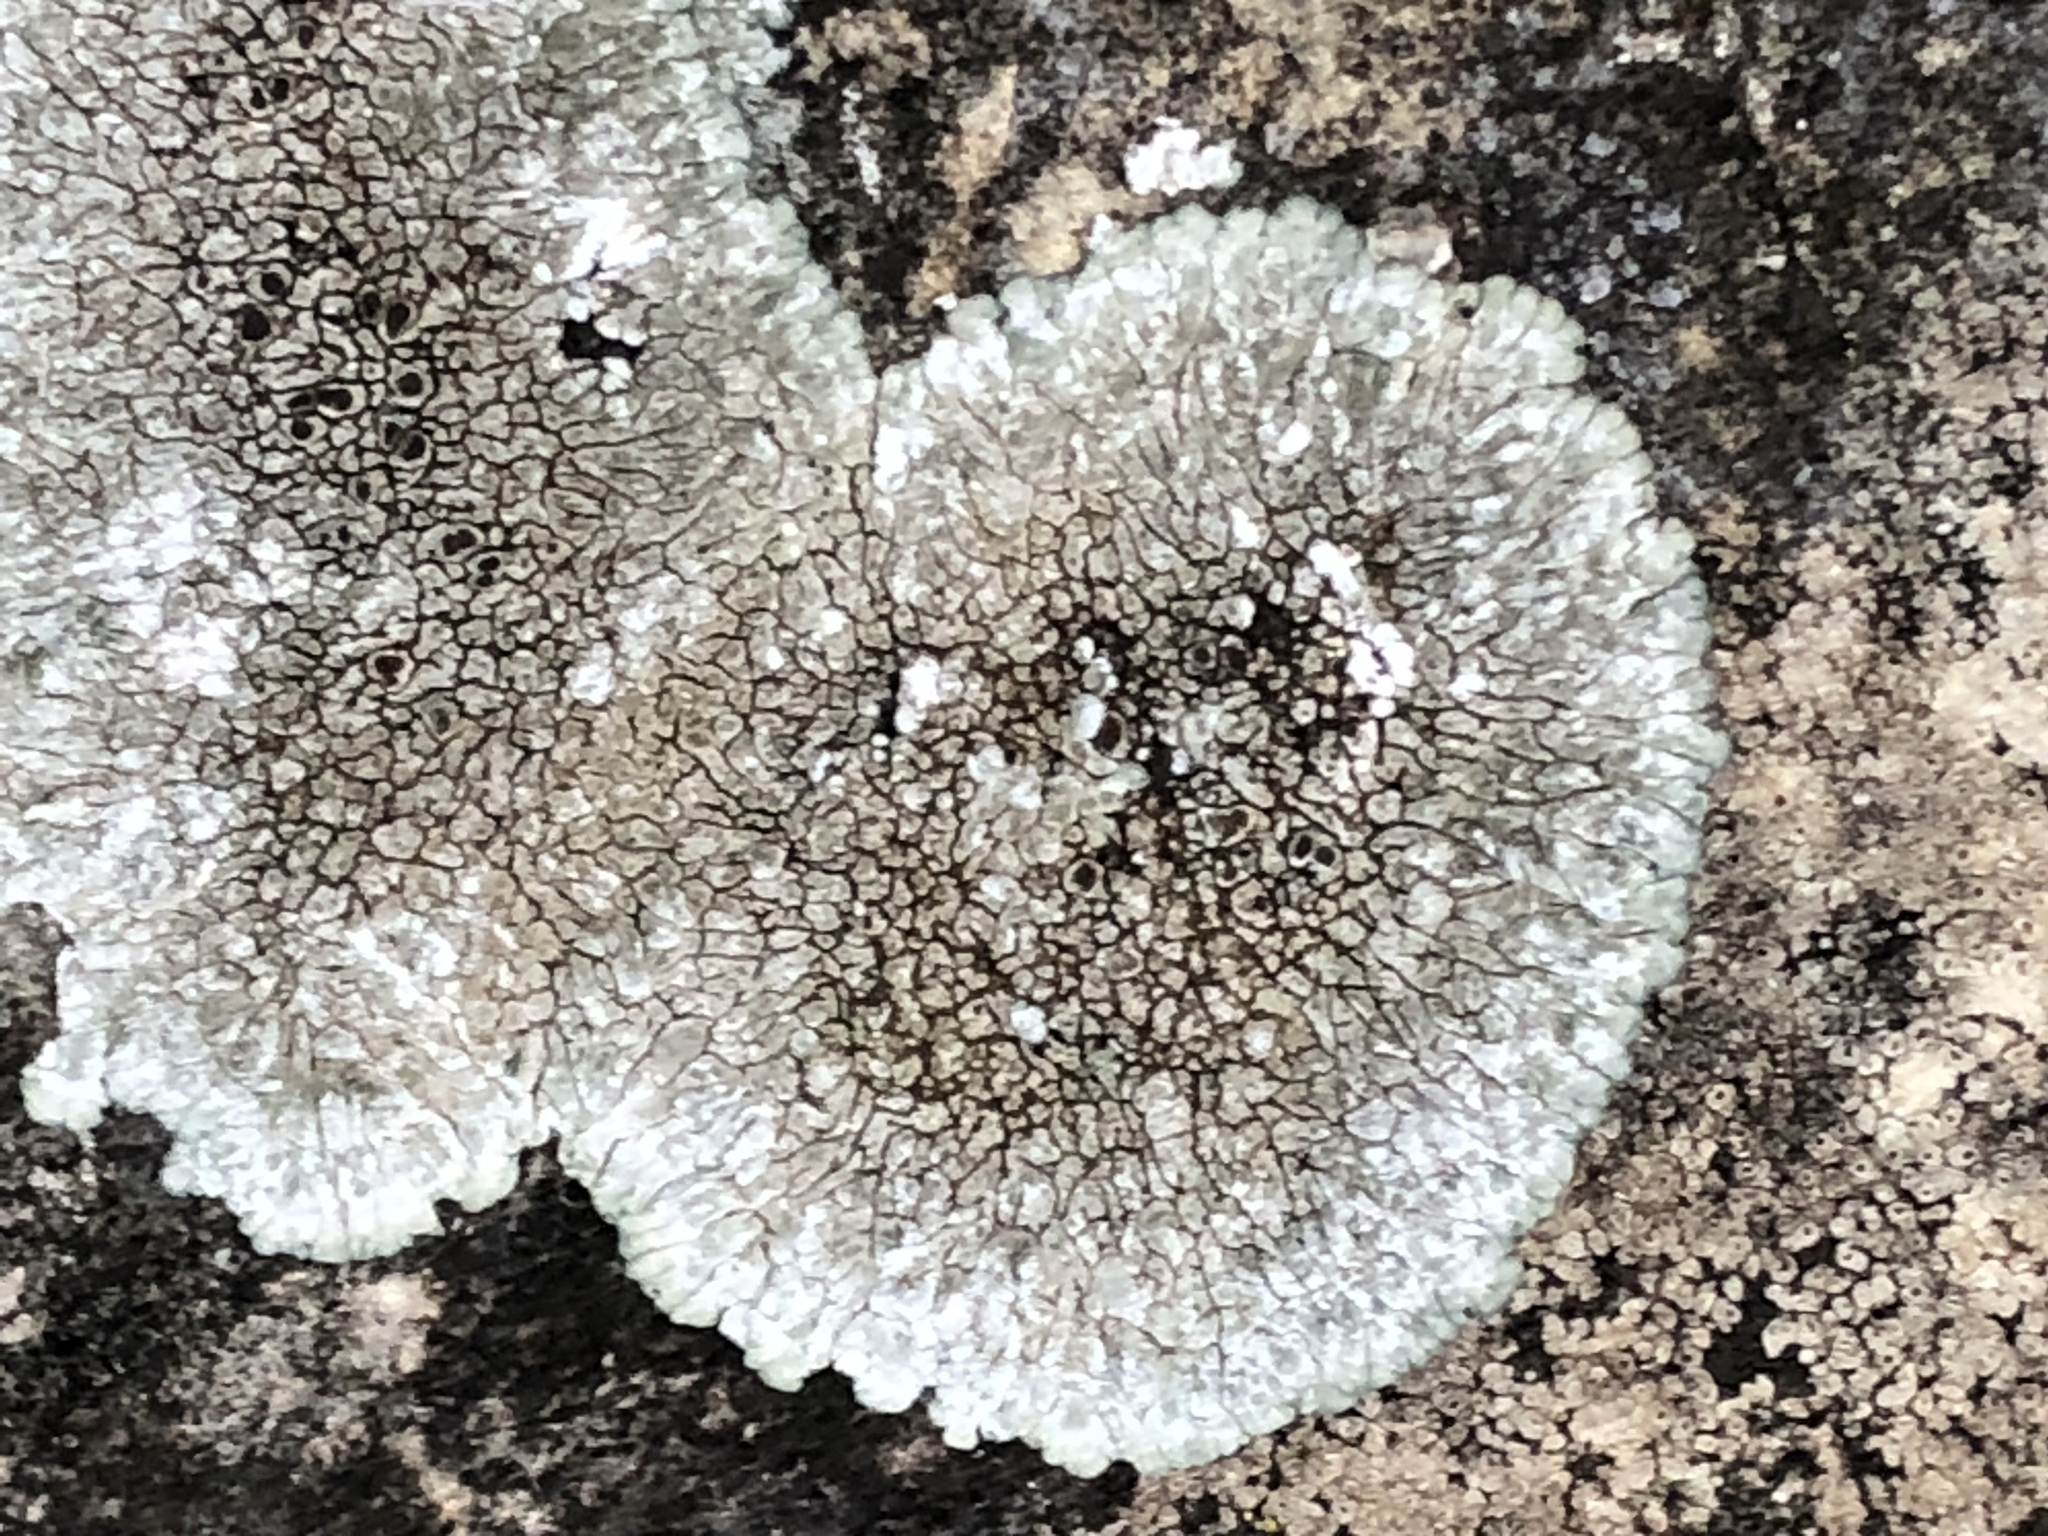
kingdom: Fungi
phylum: Ascomycota
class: Lecanoromycetes
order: Pertusariales
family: Megasporaceae
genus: Lobothallia
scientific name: Lobothallia radiosa
